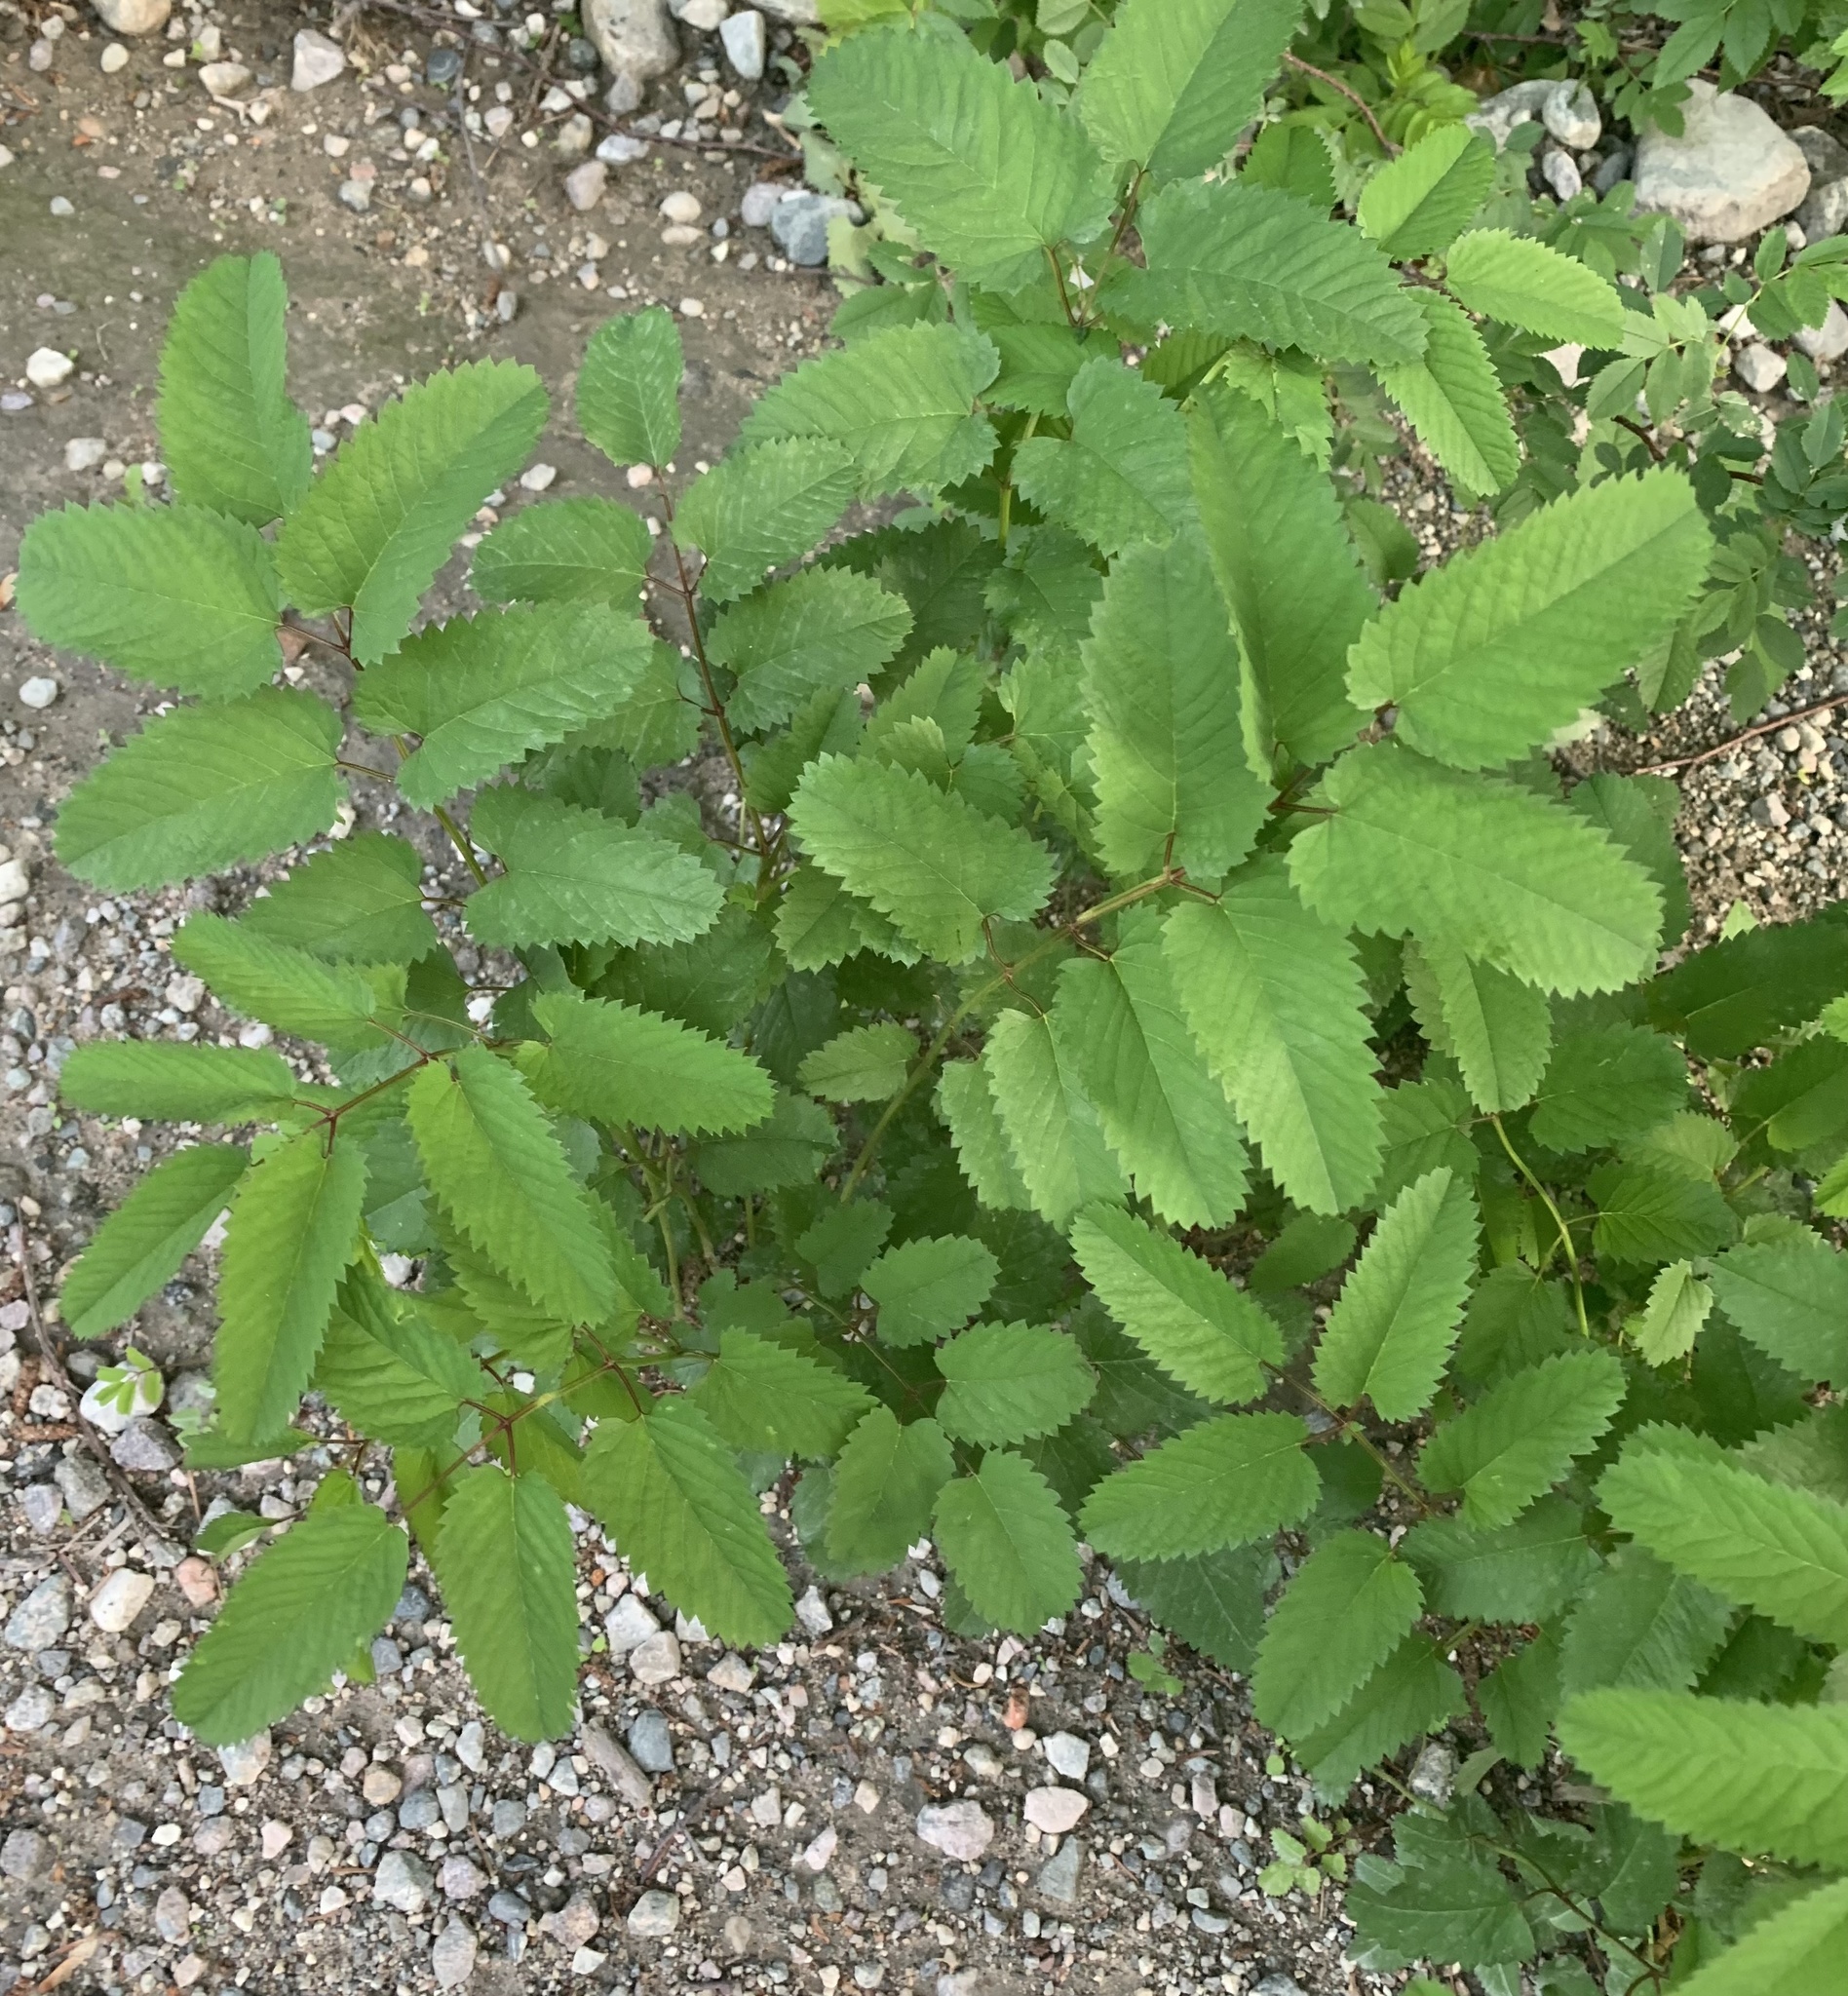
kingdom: Plantae
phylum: Tracheophyta
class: Magnoliopsida
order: Rosales
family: Rosaceae
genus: Sanguisorba
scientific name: Sanguisorba canadensis
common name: White burnet
